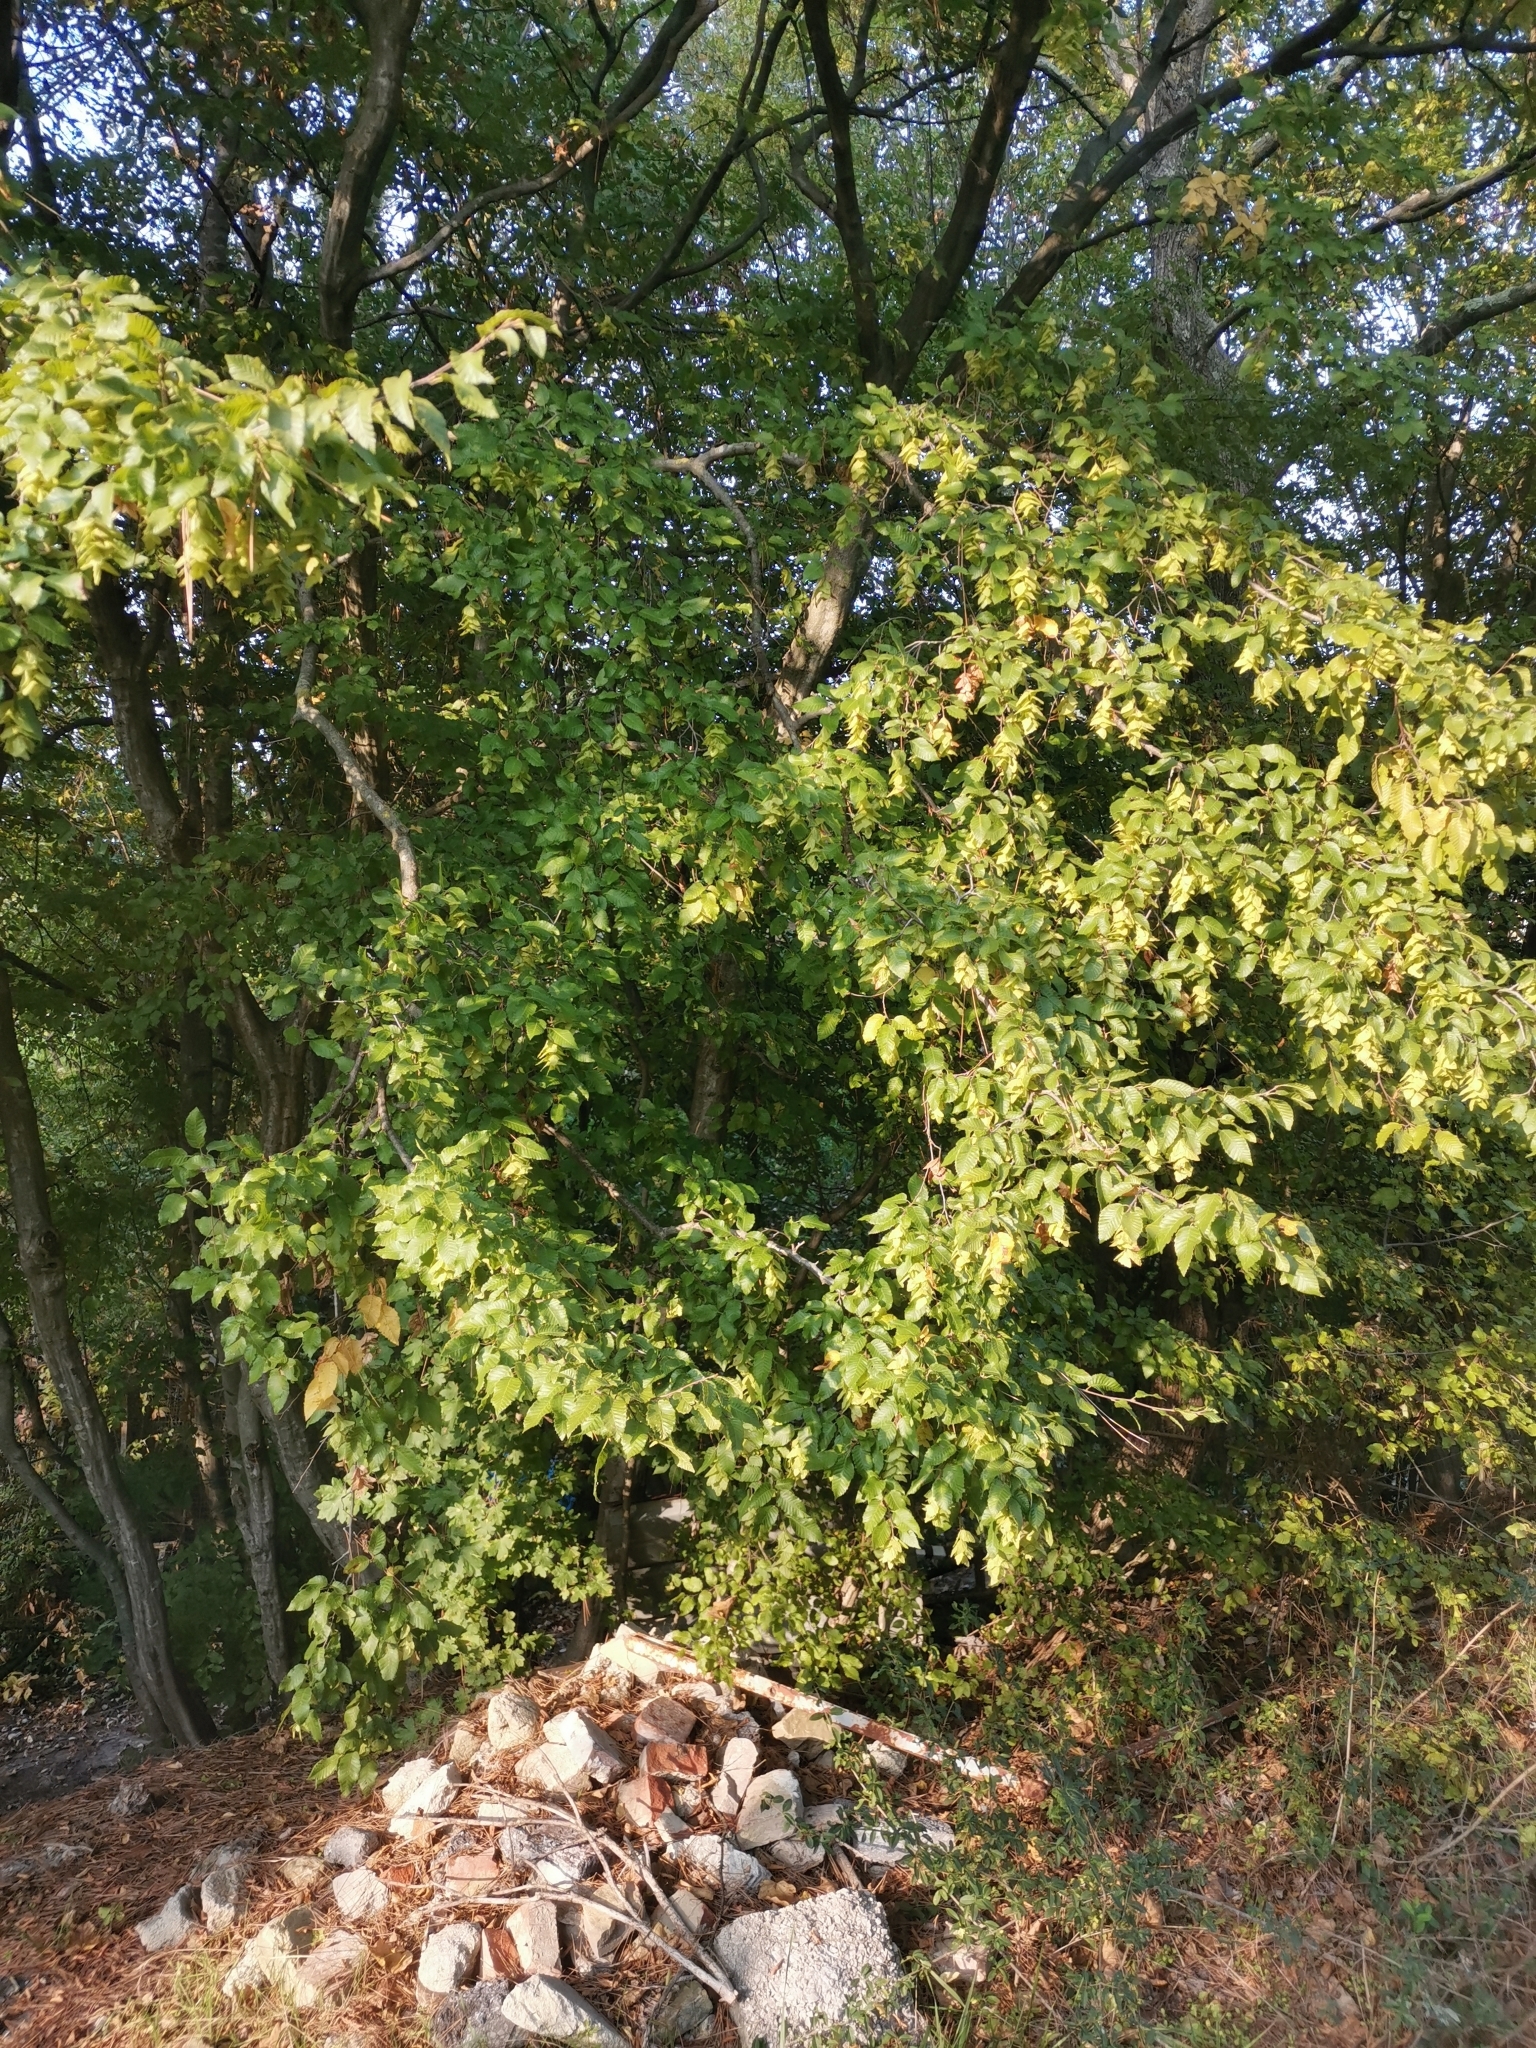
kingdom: Plantae
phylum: Tracheophyta
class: Magnoliopsida
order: Fagales
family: Betulaceae
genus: Carpinus
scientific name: Carpinus orientalis
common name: Eastern hornbeam
